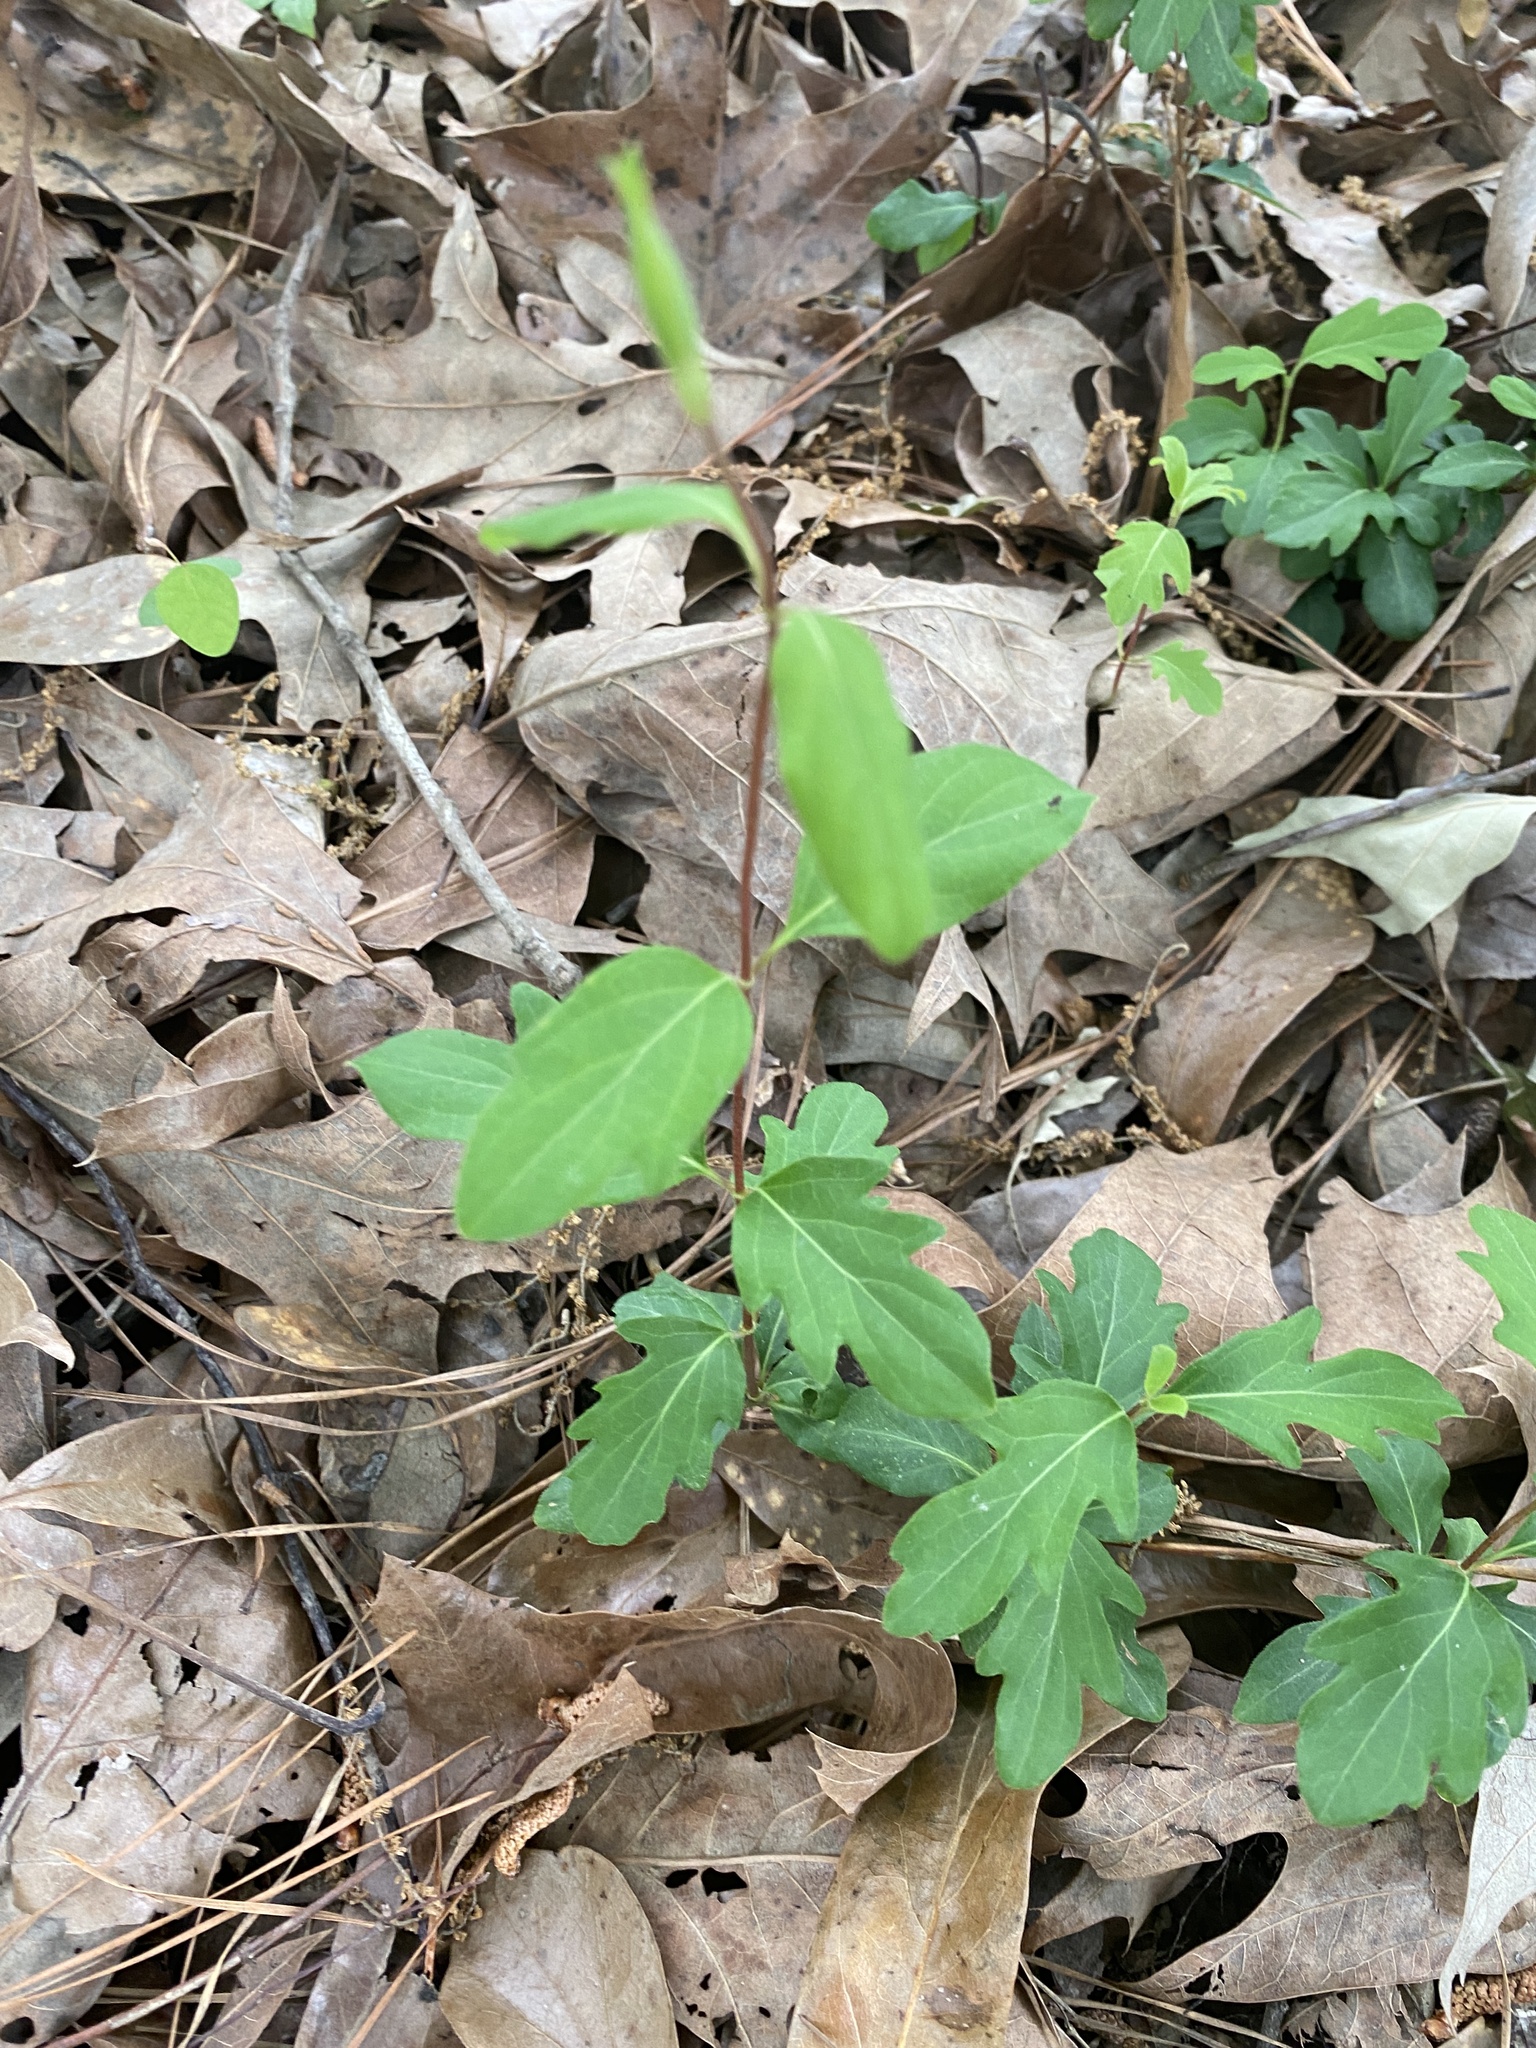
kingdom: Plantae
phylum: Tracheophyta
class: Magnoliopsida
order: Dipsacales
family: Caprifoliaceae
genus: Lonicera
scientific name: Lonicera japonica
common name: Japanese honeysuckle
